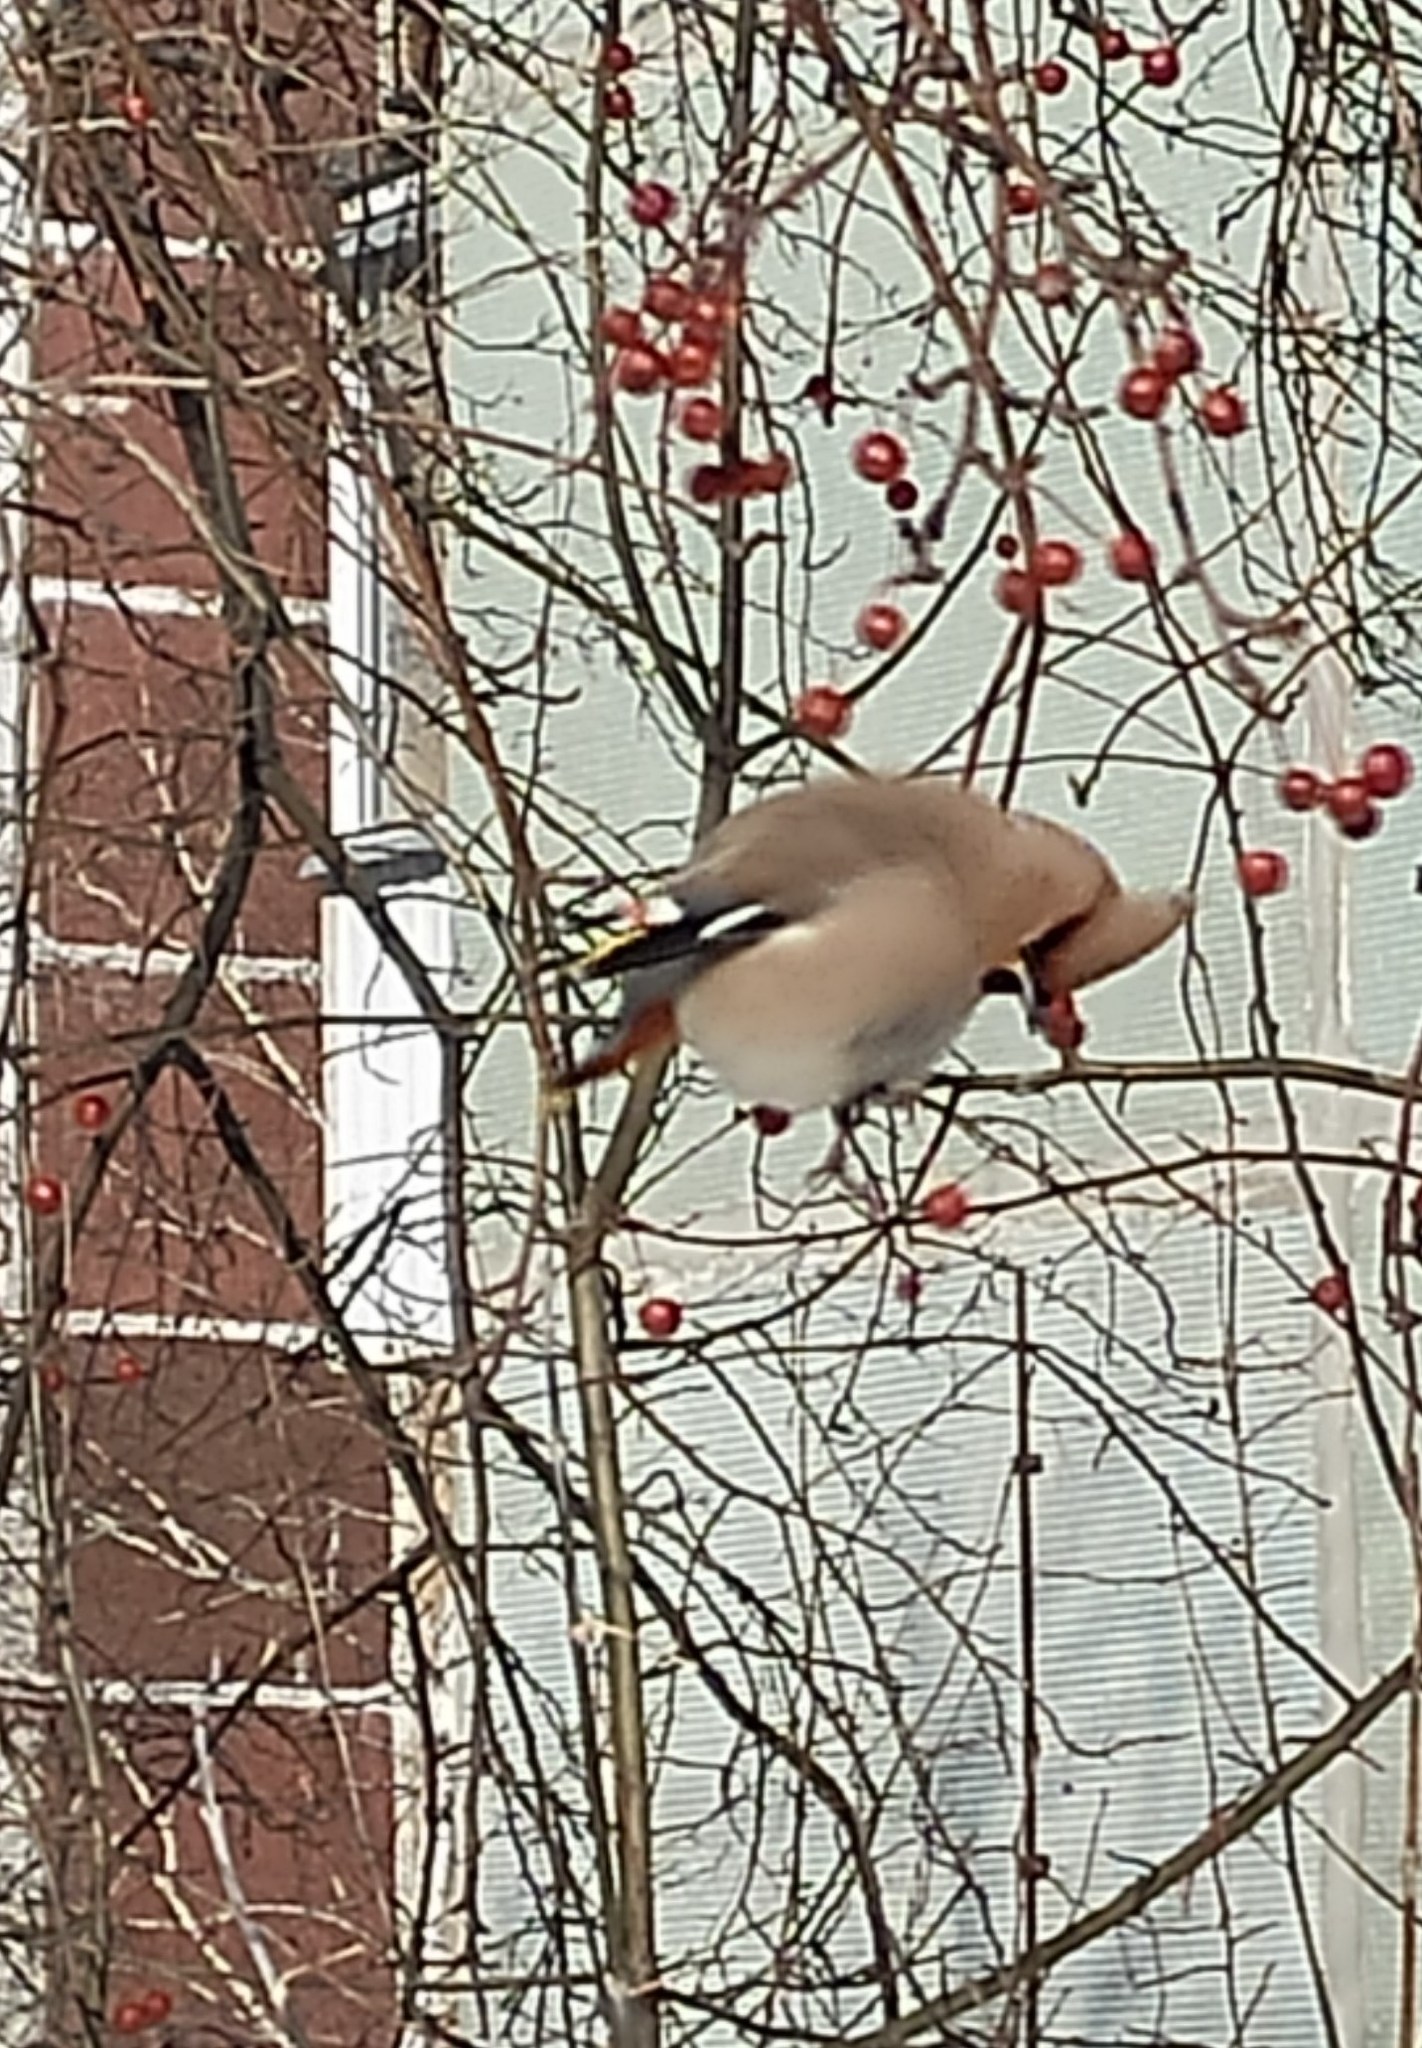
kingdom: Animalia
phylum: Chordata
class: Aves
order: Passeriformes
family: Bombycillidae
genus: Bombycilla
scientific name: Bombycilla garrulus
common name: Bohemian waxwing
